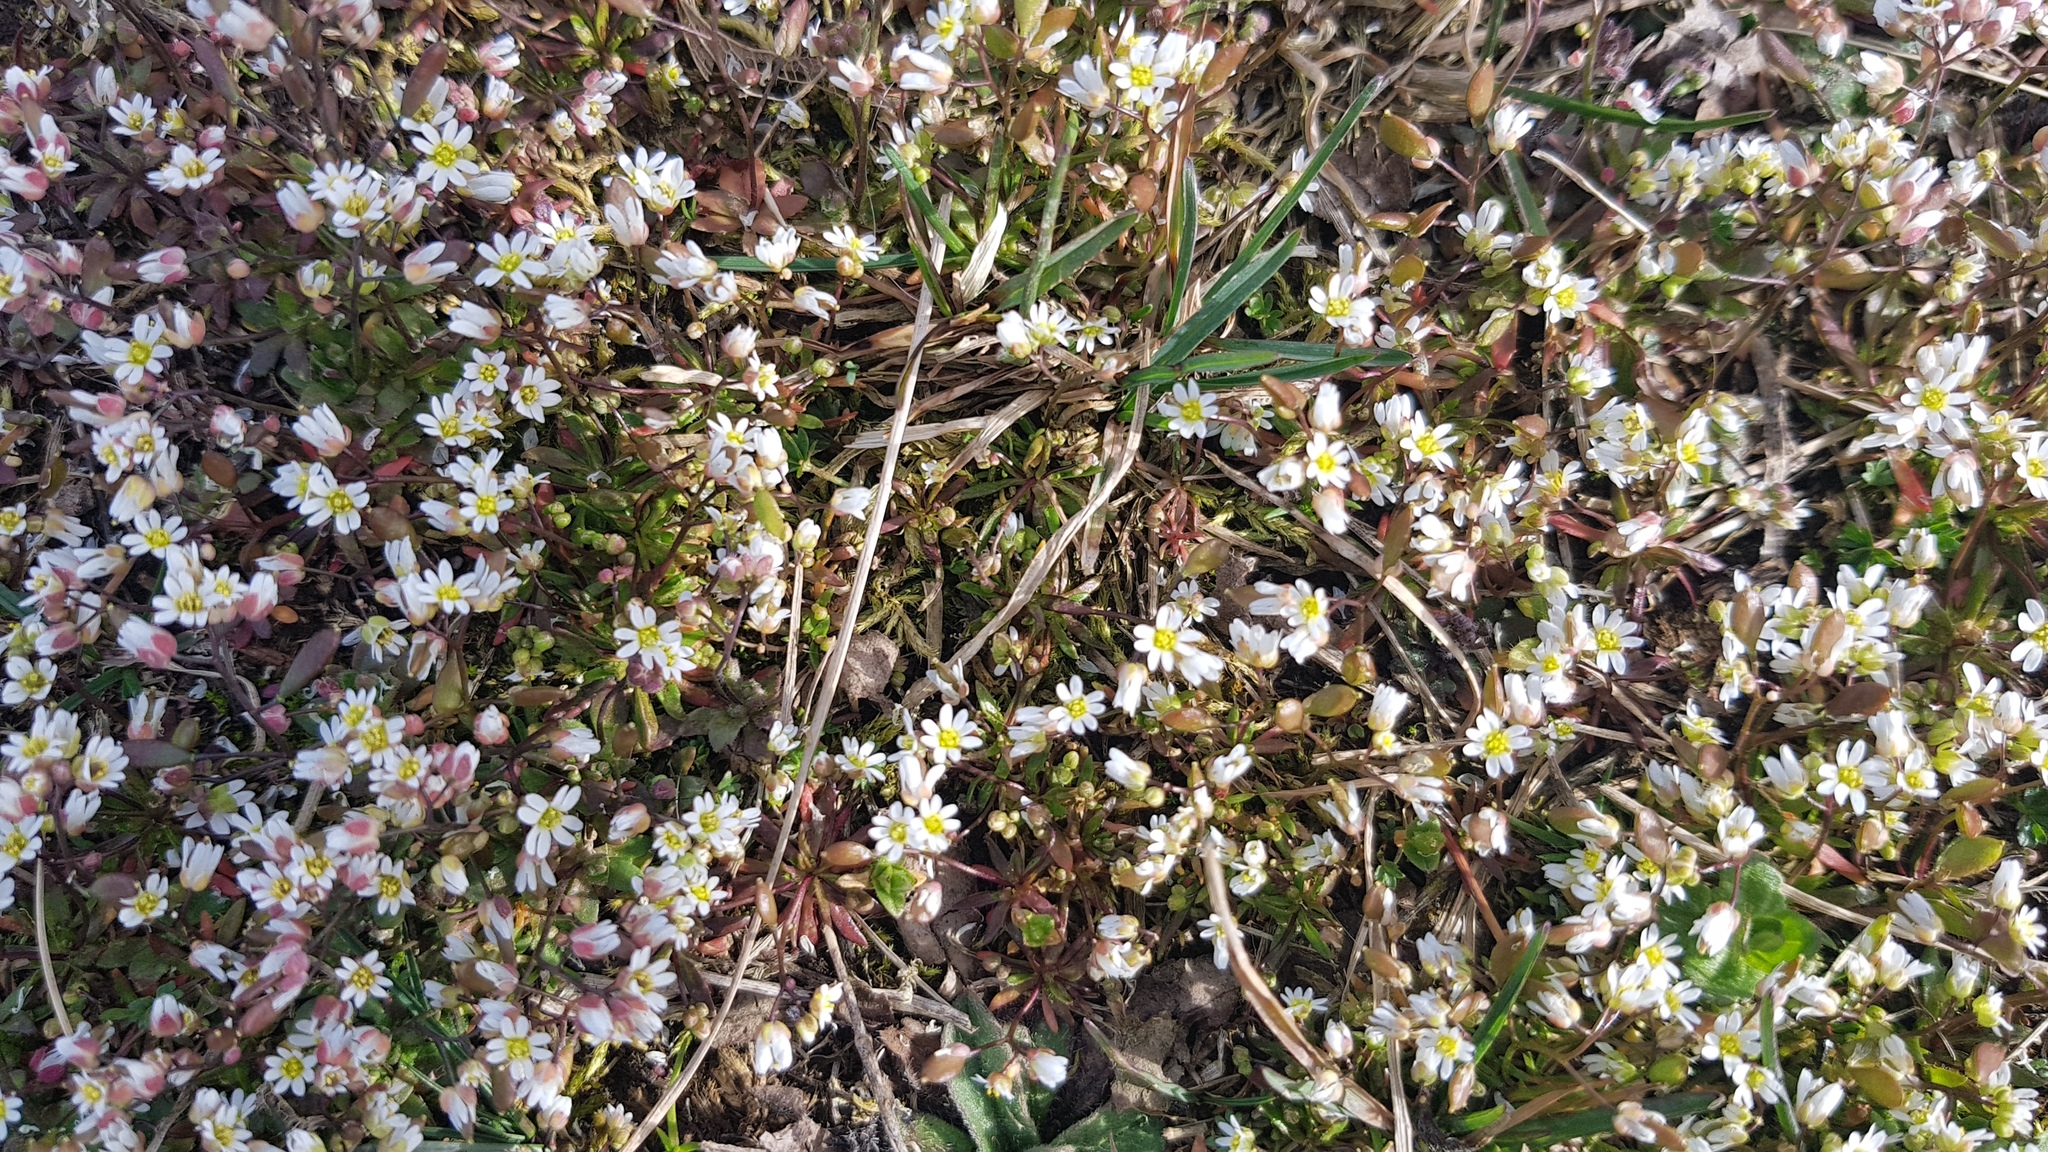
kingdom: Plantae
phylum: Tracheophyta
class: Magnoliopsida
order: Brassicales
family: Brassicaceae
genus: Draba
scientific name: Draba verna
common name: Spring draba
